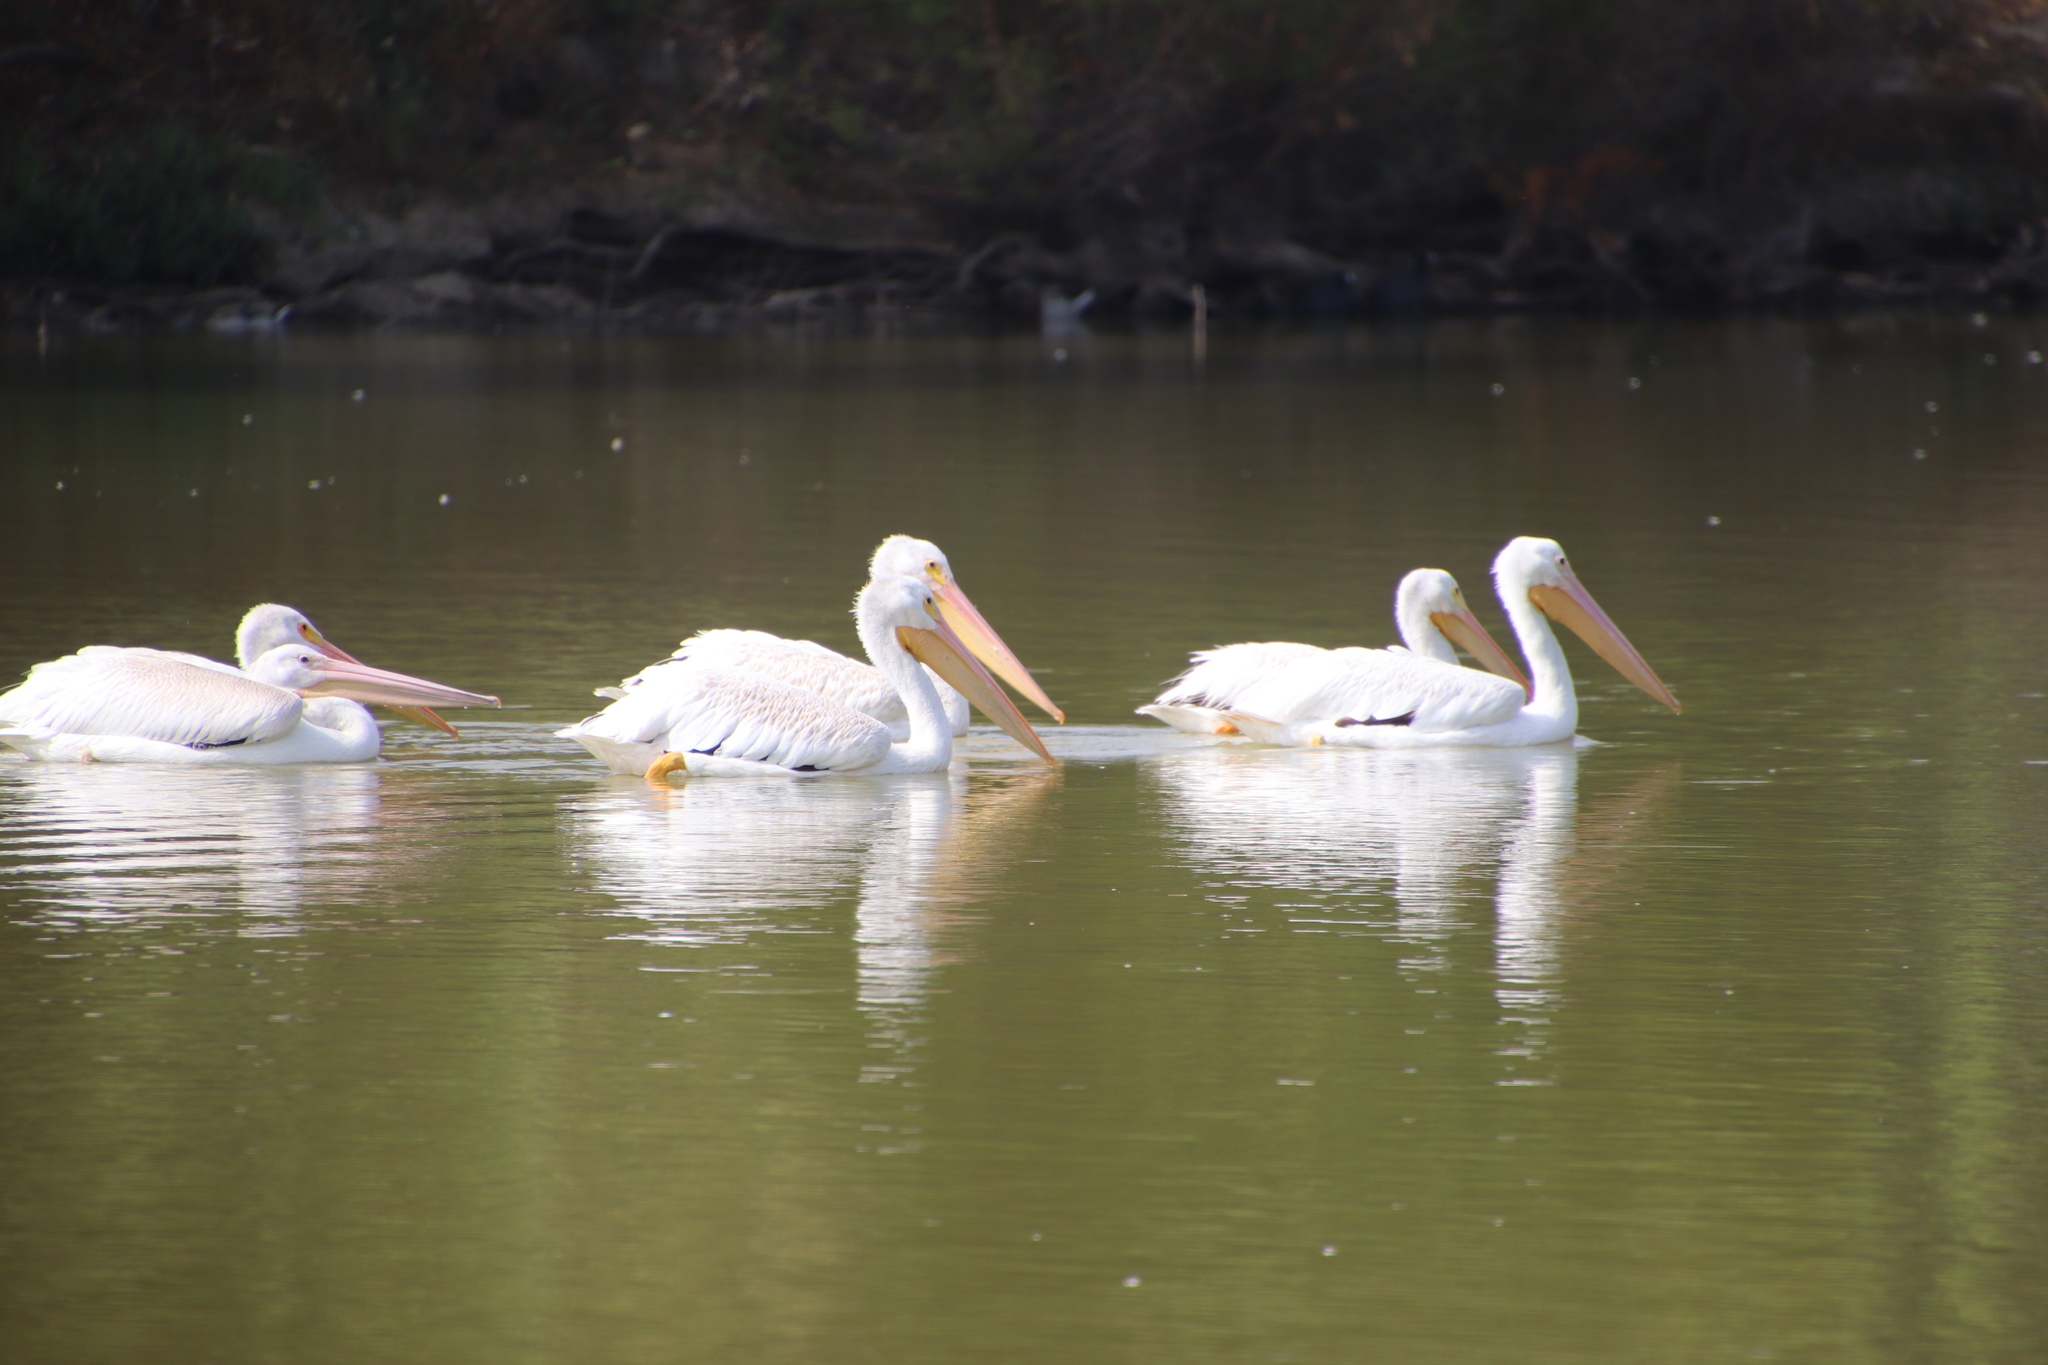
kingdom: Animalia
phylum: Chordata
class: Aves
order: Pelecaniformes
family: Pelecanidae
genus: Pelecanus
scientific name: Pelecanus erythrorhynchos
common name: American white pelican
